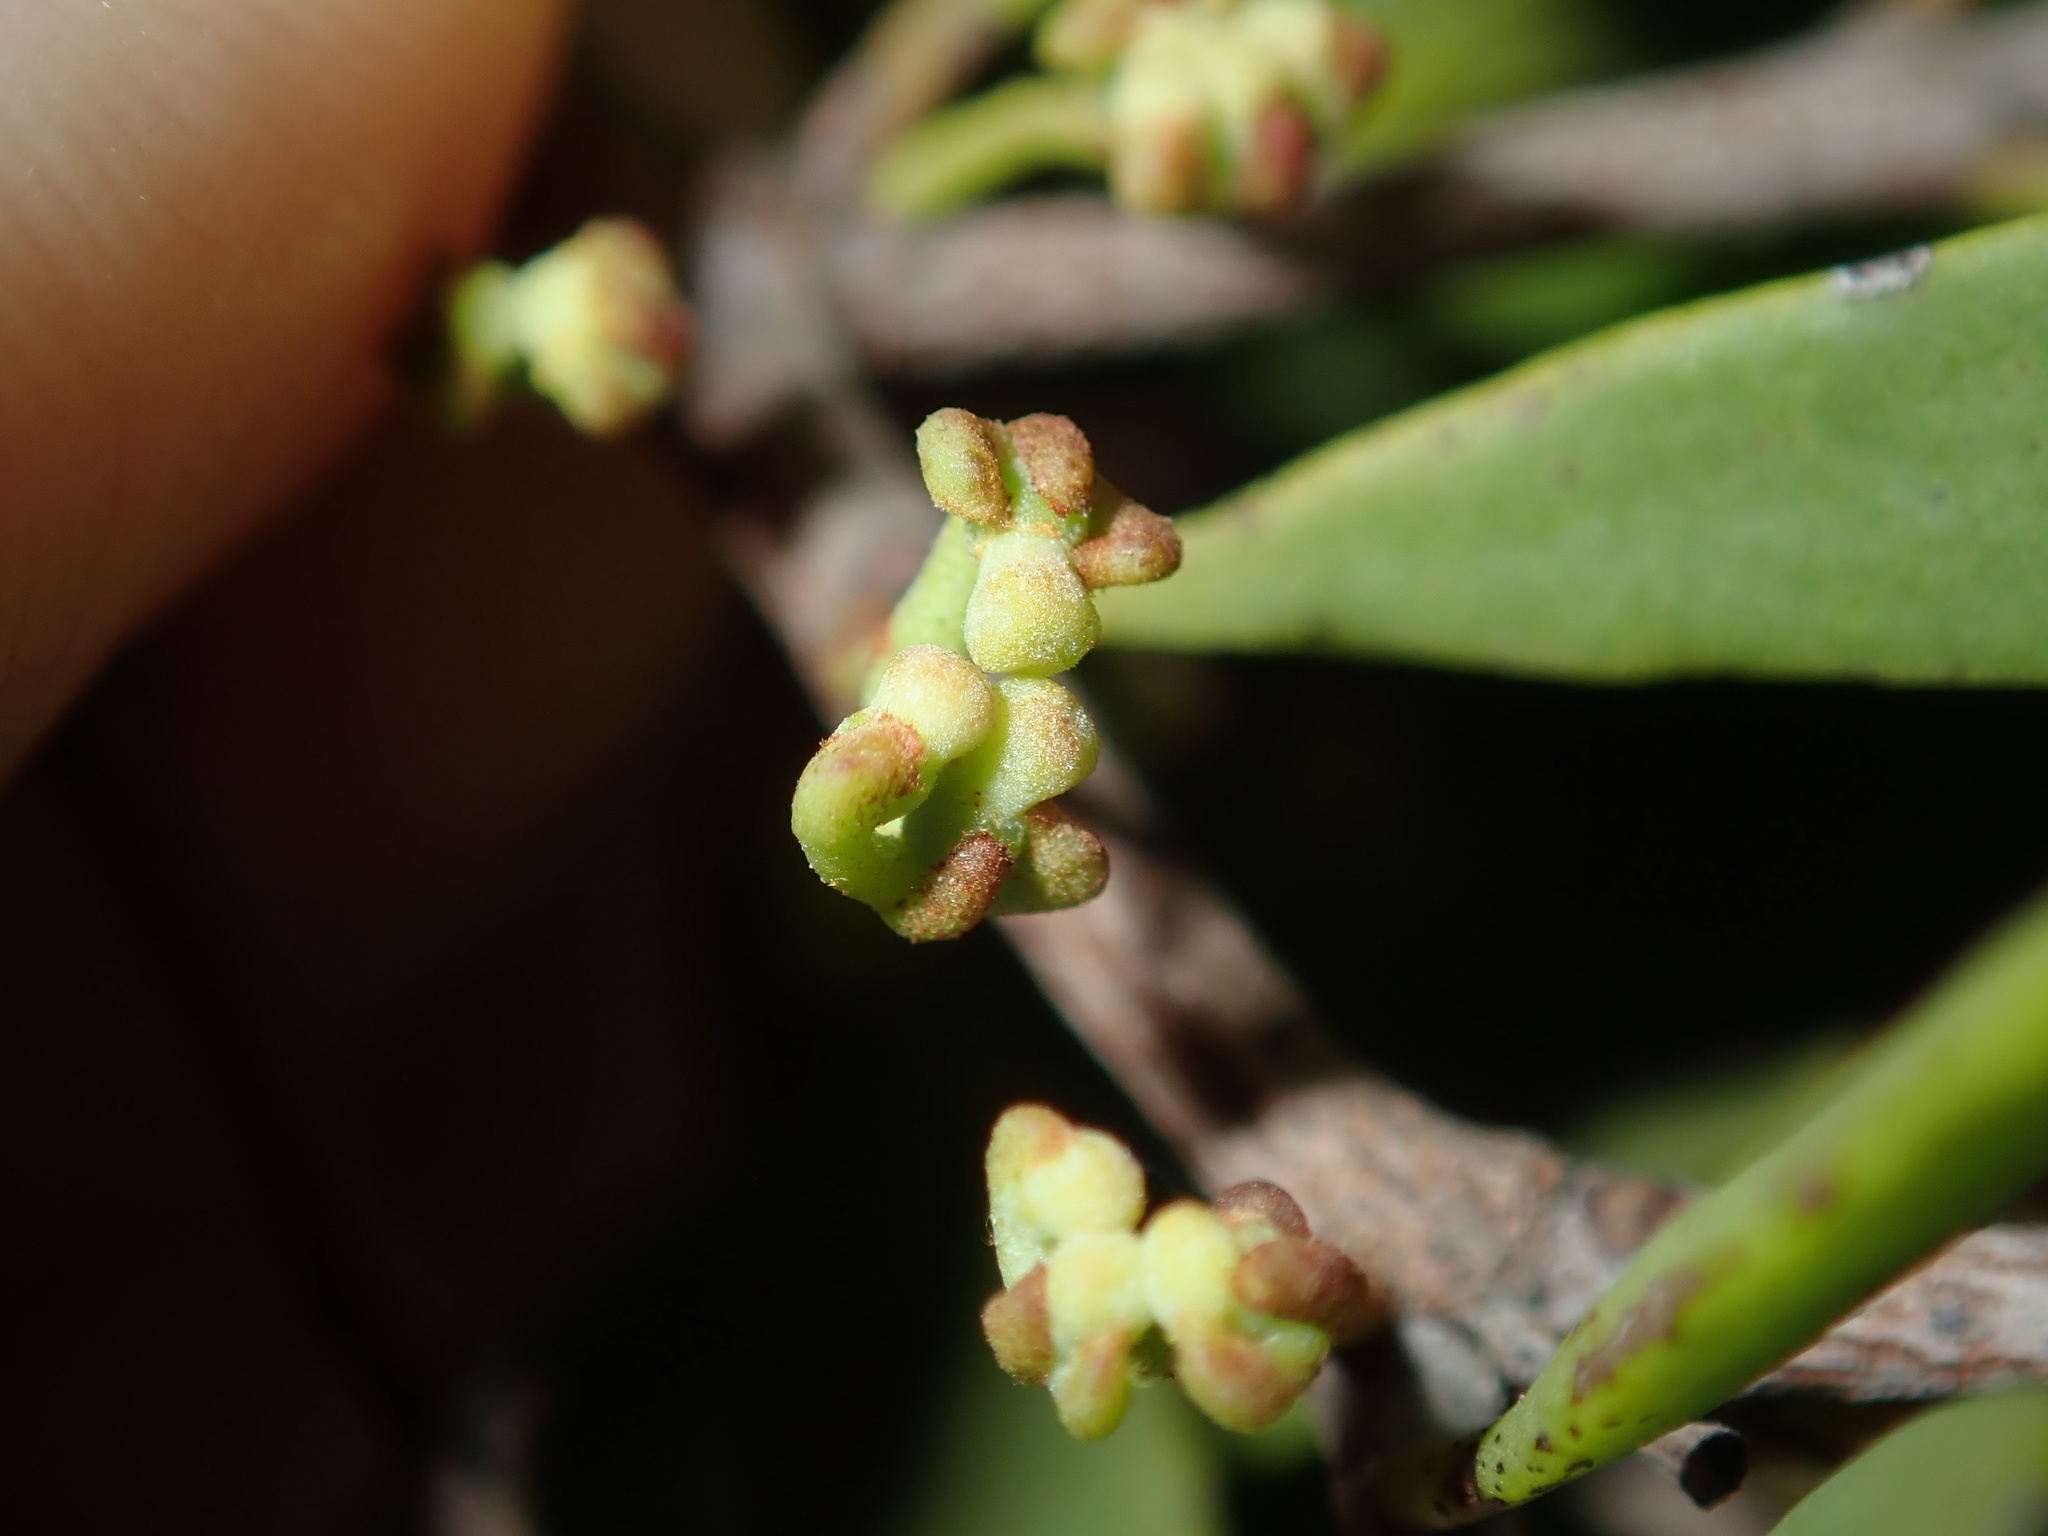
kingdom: Plantae
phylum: Tracheophyta
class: Magnoliopsida
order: Santalales
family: Loranthaceae
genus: Amyema
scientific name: Amyema gaudichaudii
